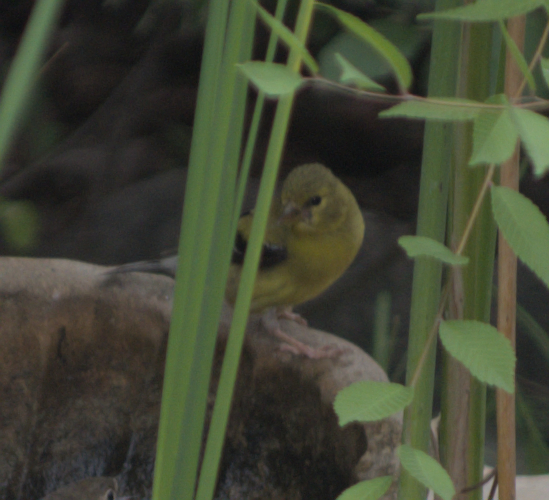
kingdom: Animalia
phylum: Chordata
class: Aves
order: Passeriformes
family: Fringillidae
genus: Spinus
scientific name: Spinus tristis
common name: American goldfinch
